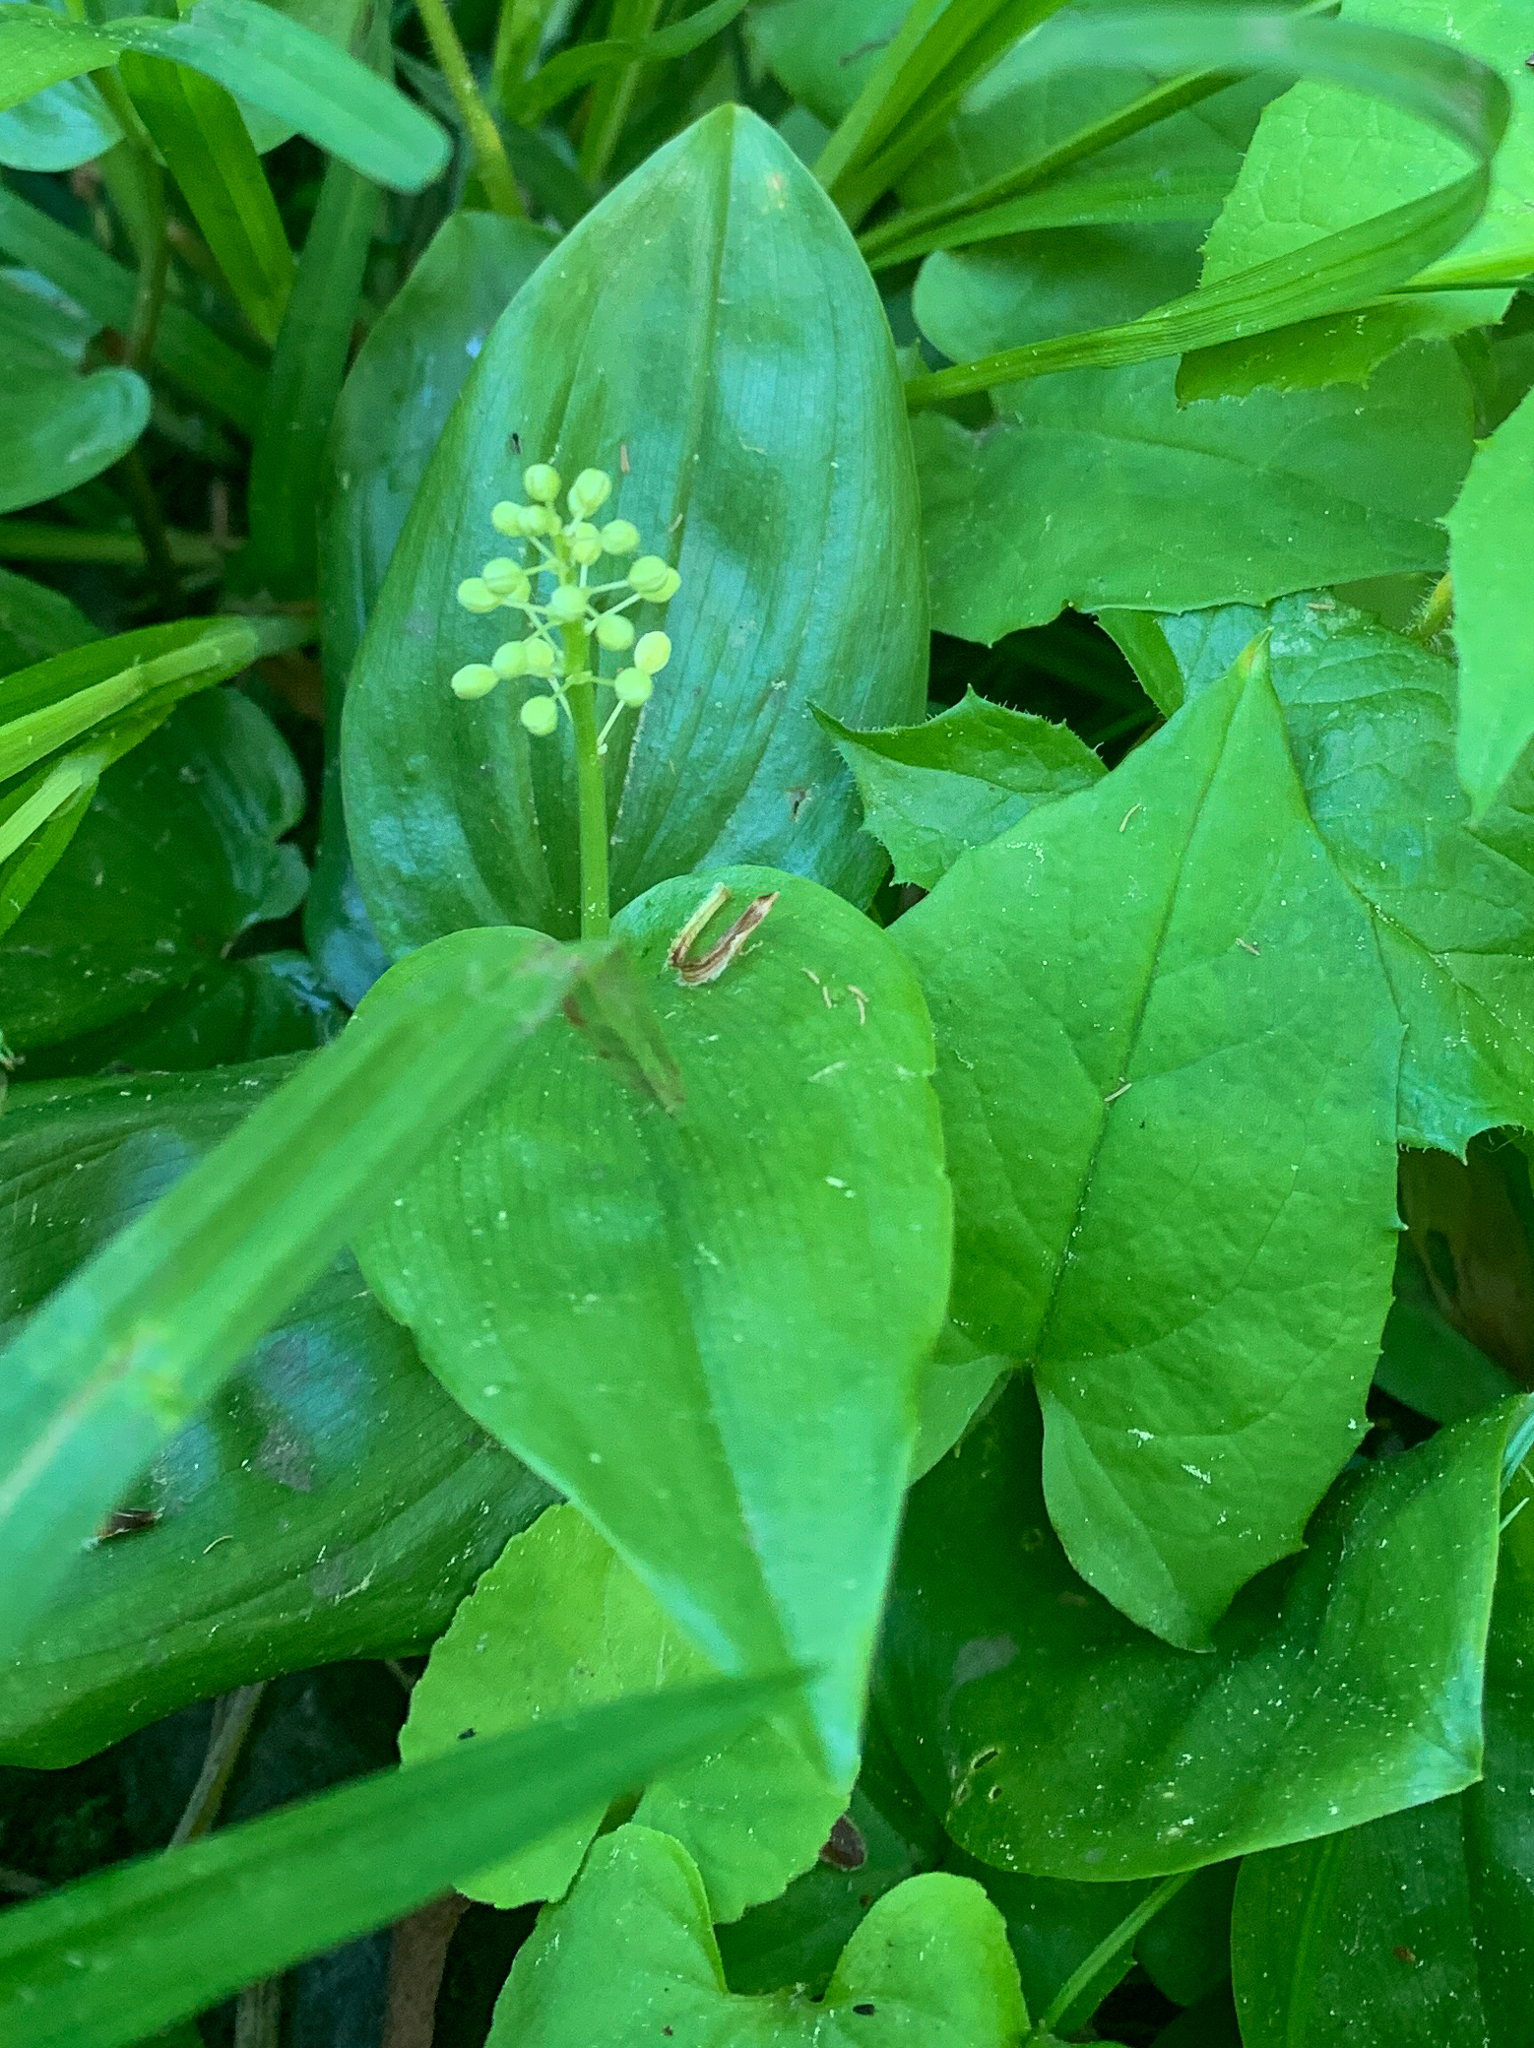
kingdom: Plantae
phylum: Tracheophyta
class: Liliopsida
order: Asparagales
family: Asparagaceae
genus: Maianthemum
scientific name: Maianthemum canadense
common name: False lily-of-the-valley
